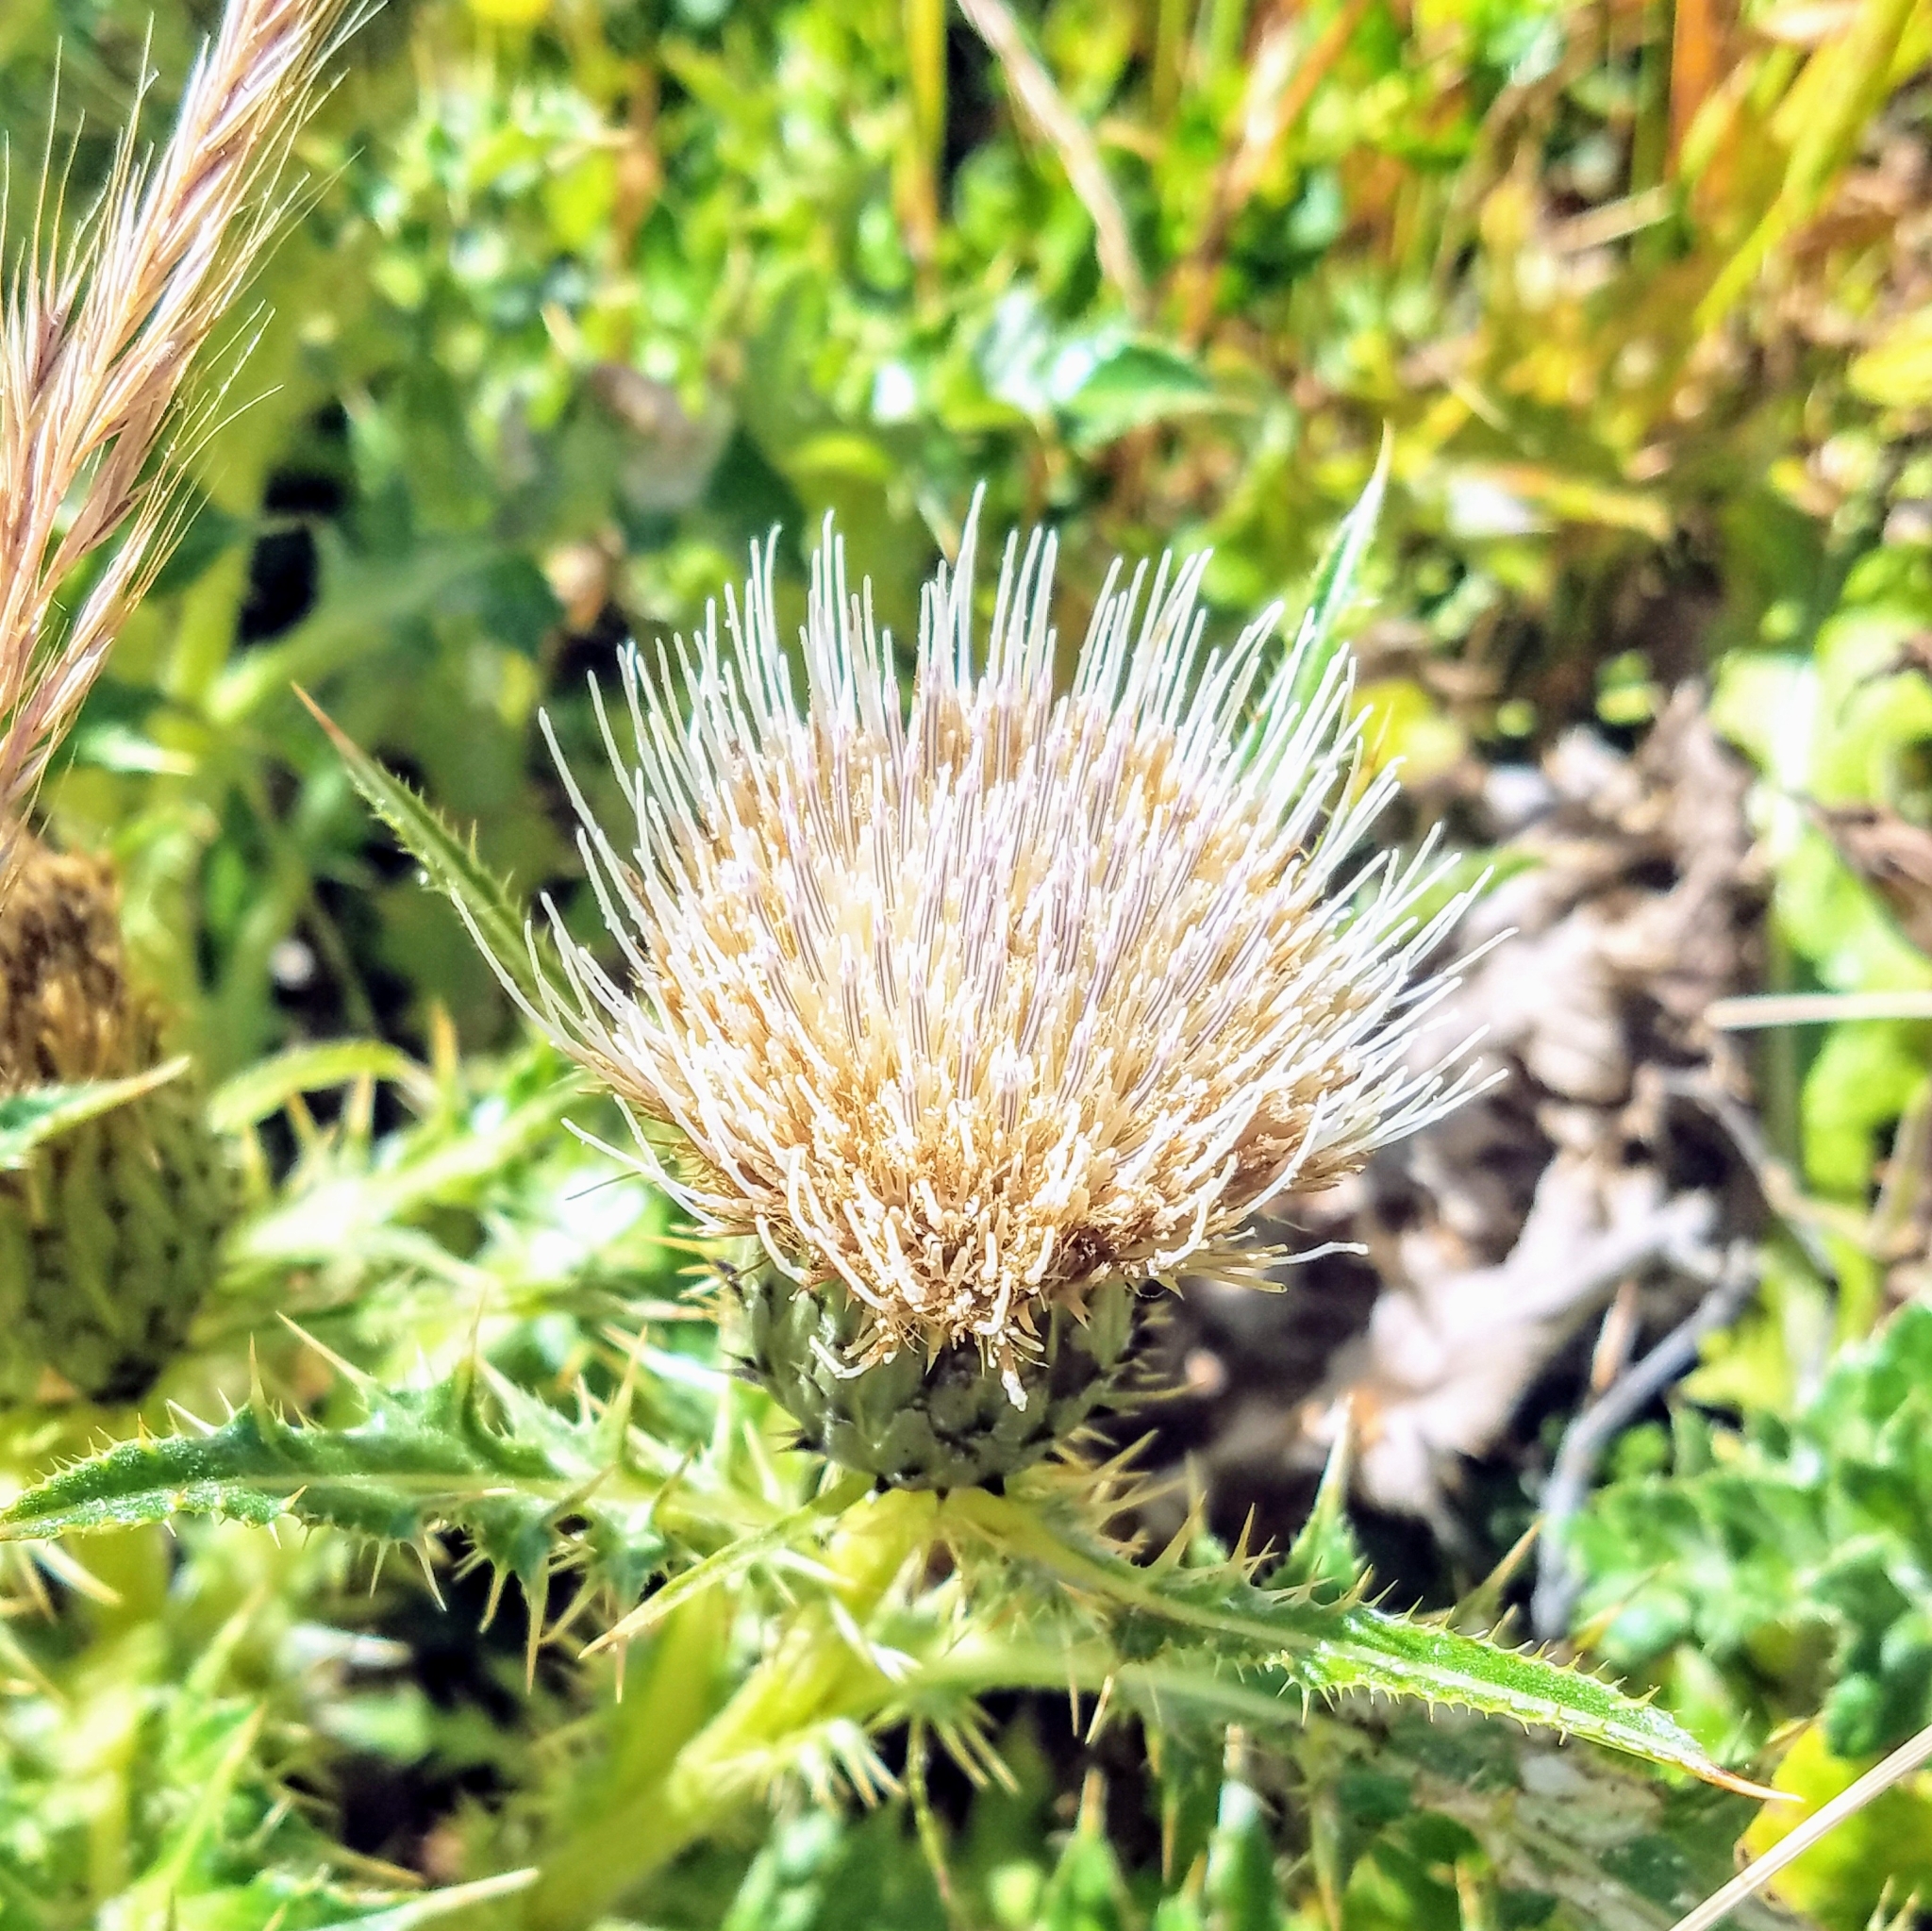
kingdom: Plantae
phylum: Tracheophyta
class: Magnoliopsida
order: Asterales
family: Asteraceae
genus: Cirsium
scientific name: Cirsium quercetorum
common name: Alameda county thistle
